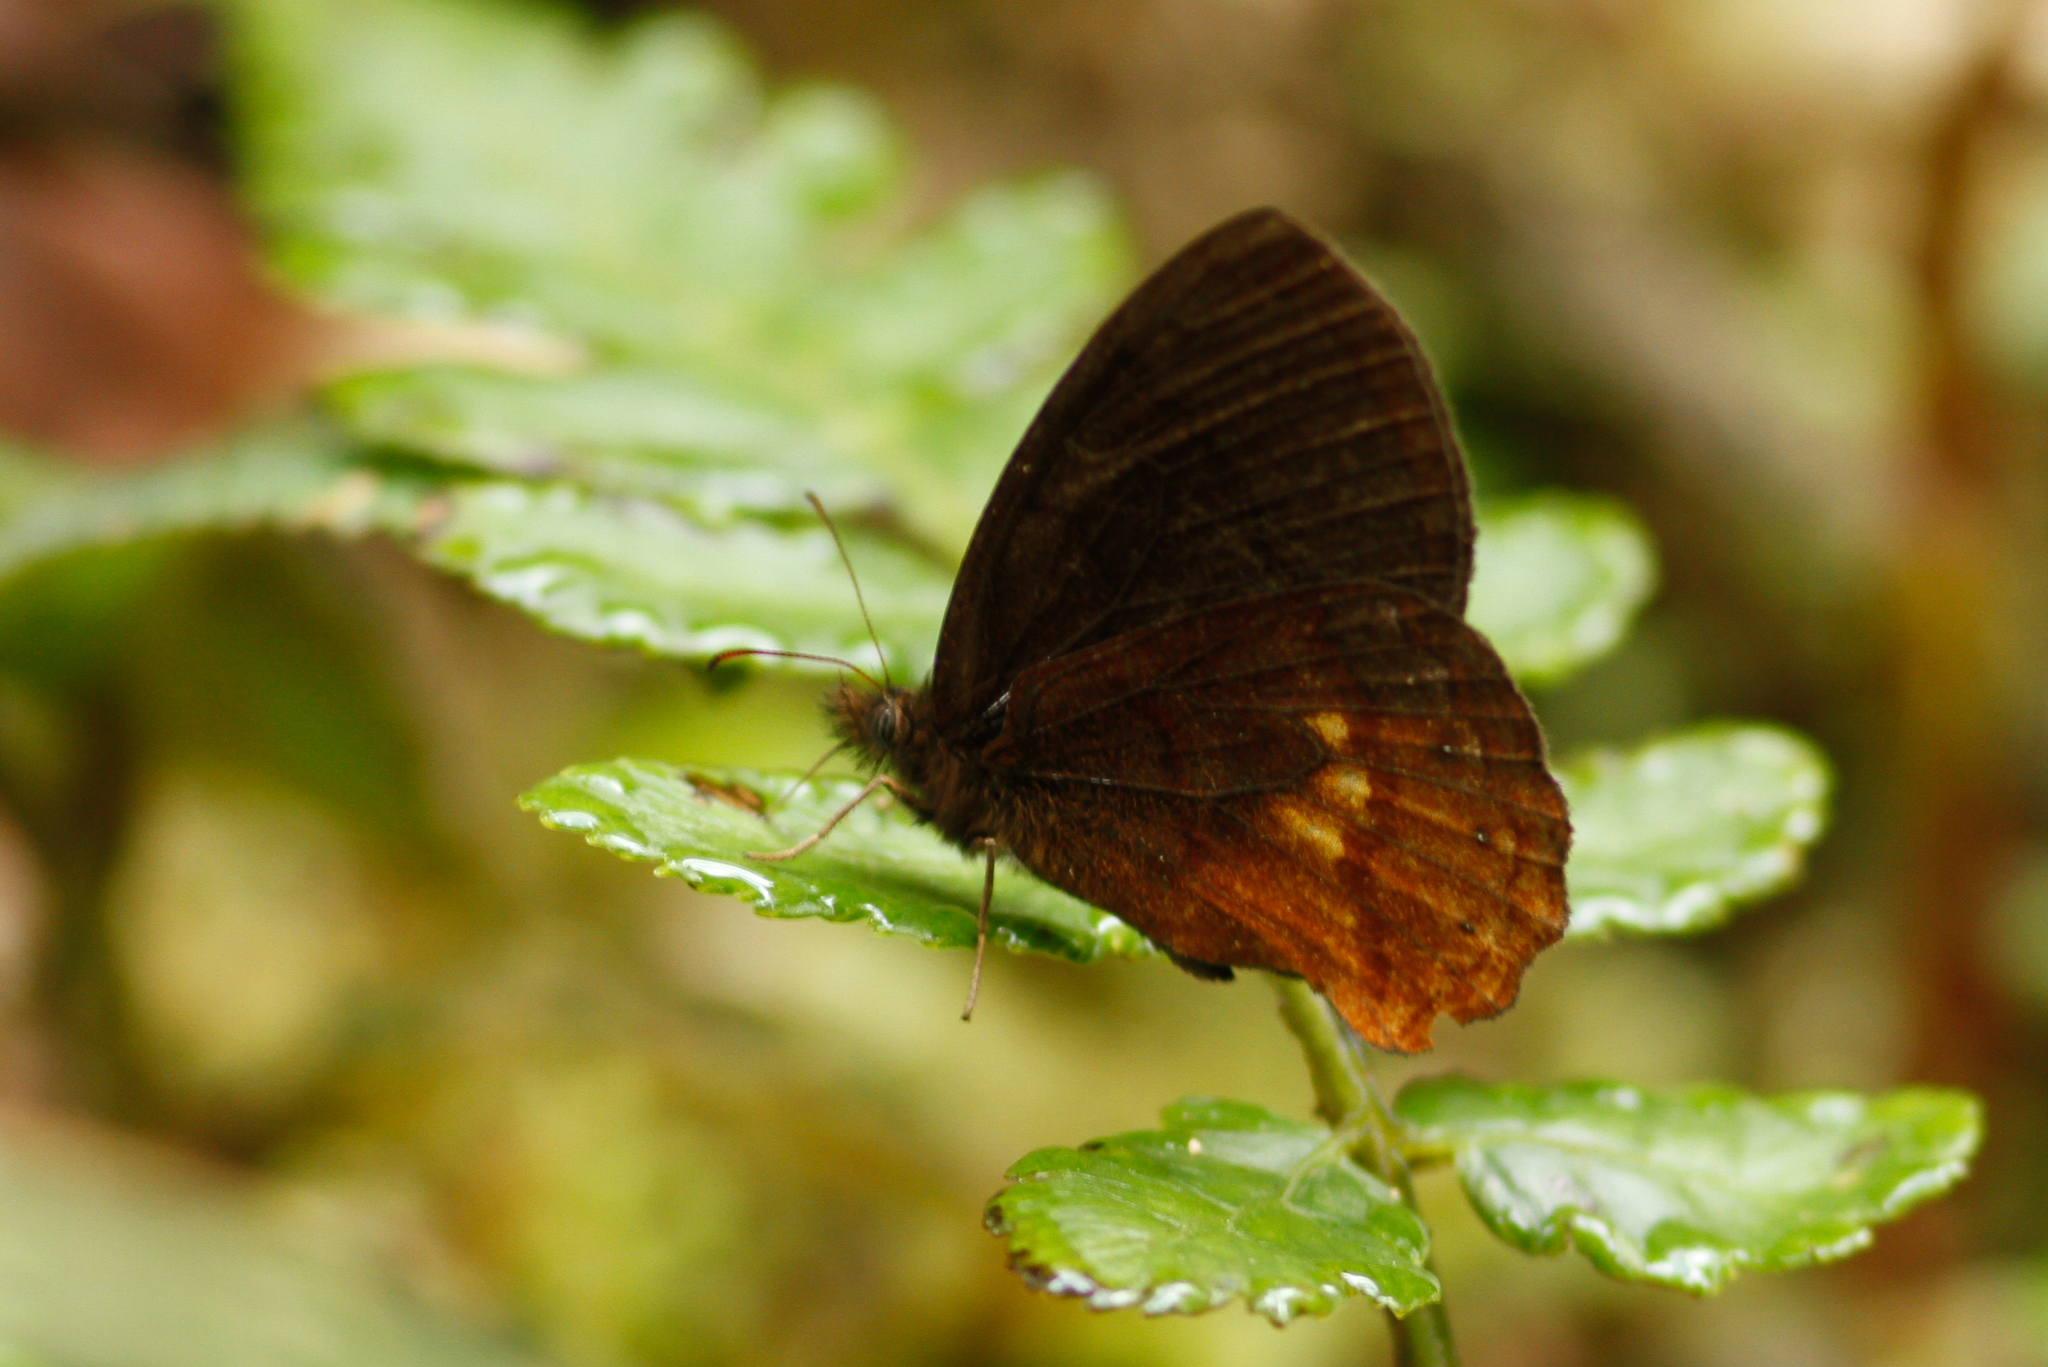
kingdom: Animalia
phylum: Arthropoda
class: Insecta
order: Lepidoptera
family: Nymphalidae
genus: Eretris
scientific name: Eretris apuleja
